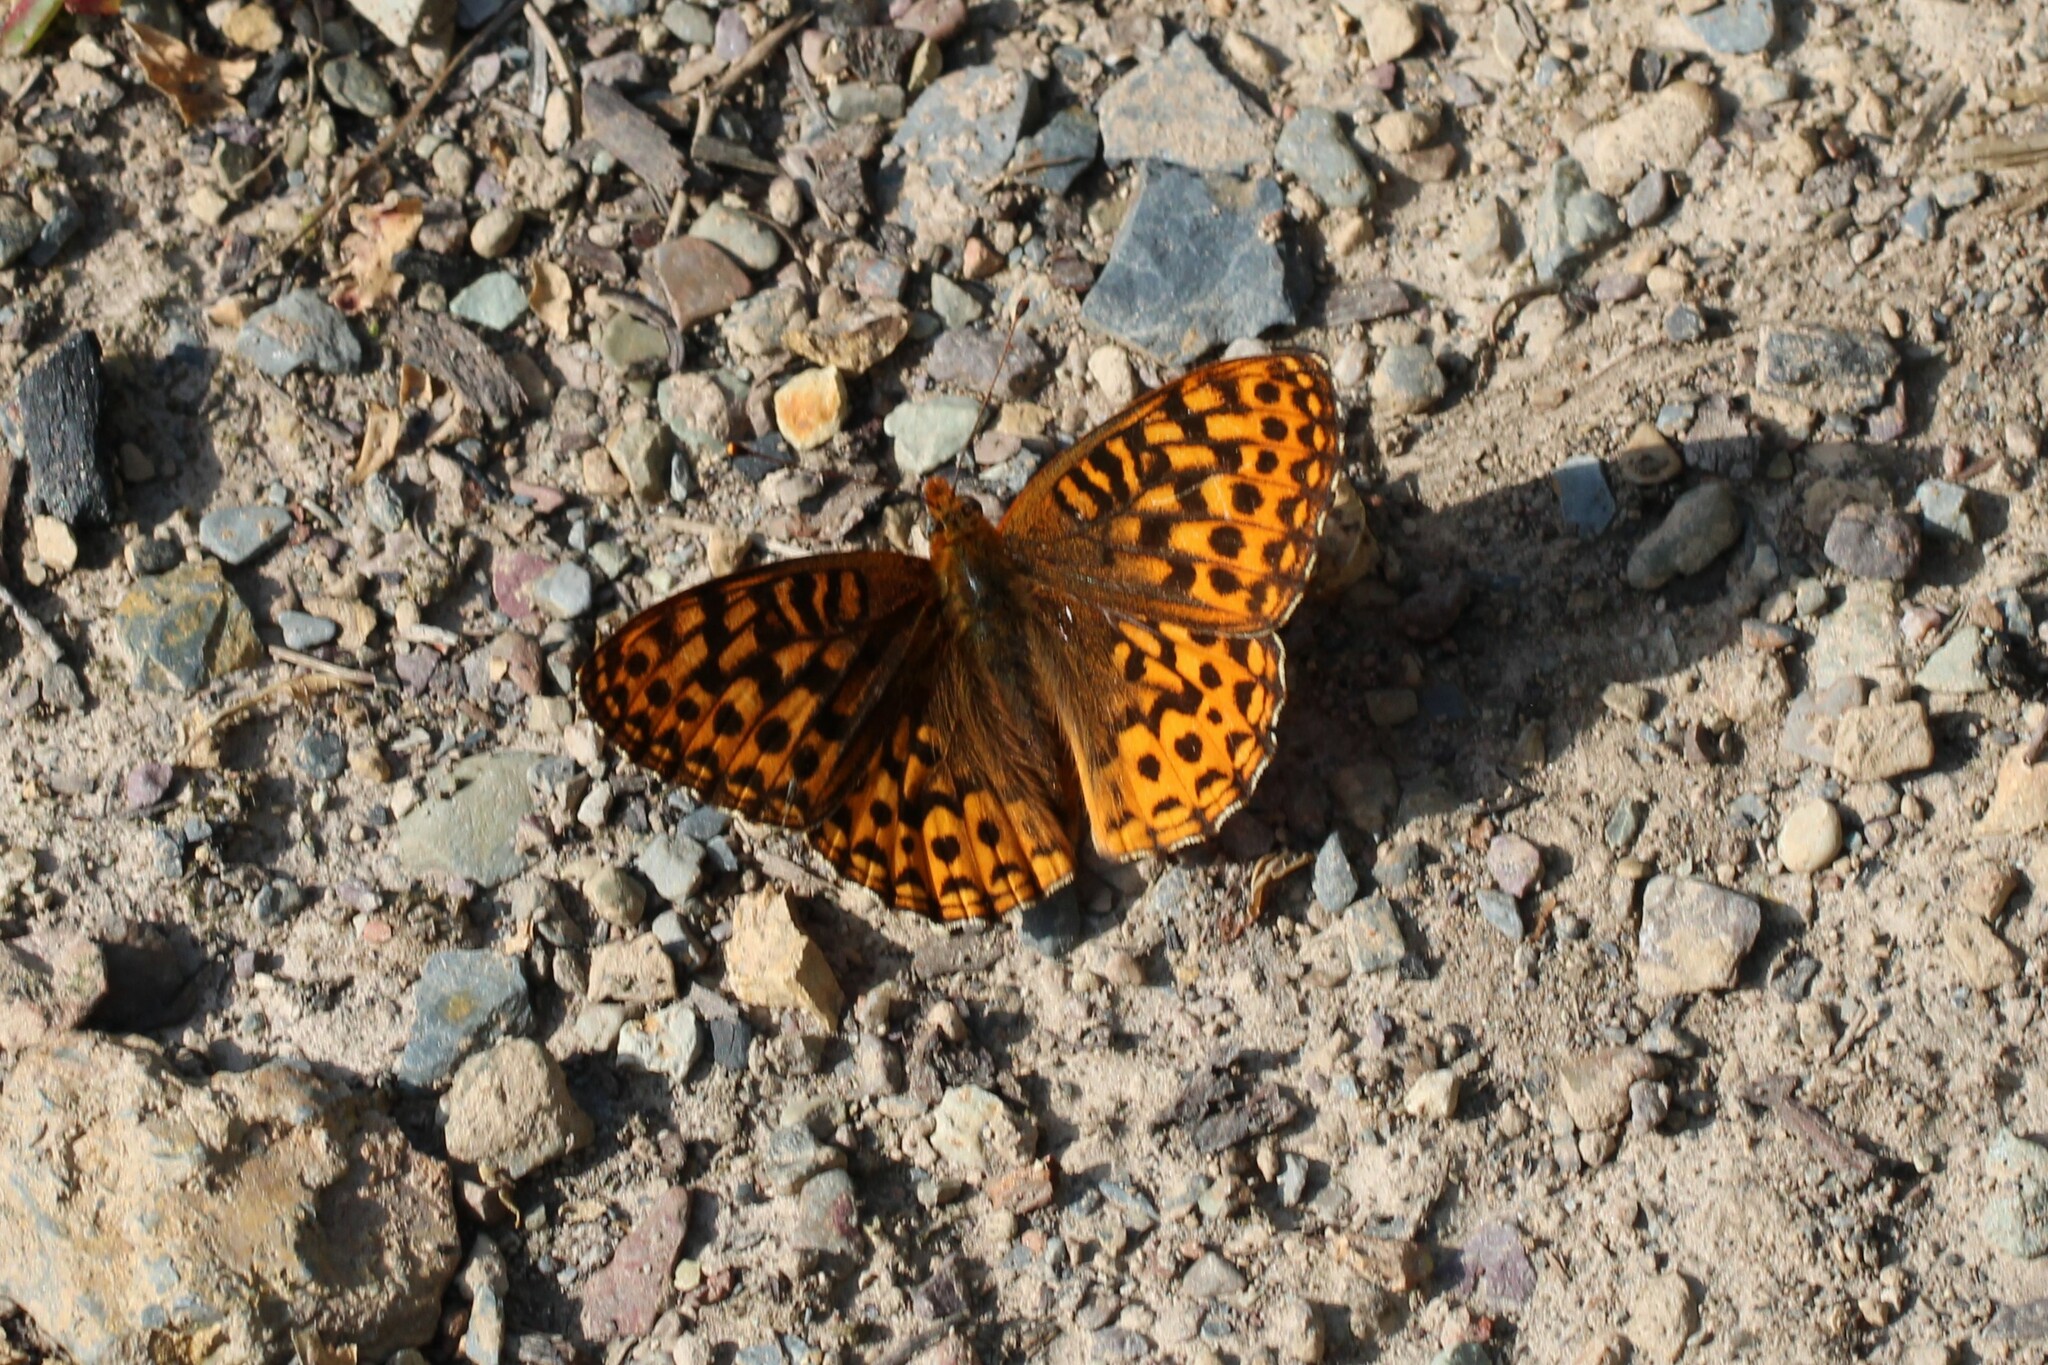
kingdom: Animalia
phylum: Arthropoda
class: Insecta
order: Lepidoptera
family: Nymphalidae
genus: Speyeria
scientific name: Speyeria hydaspe
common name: Hydaspe fritillary
